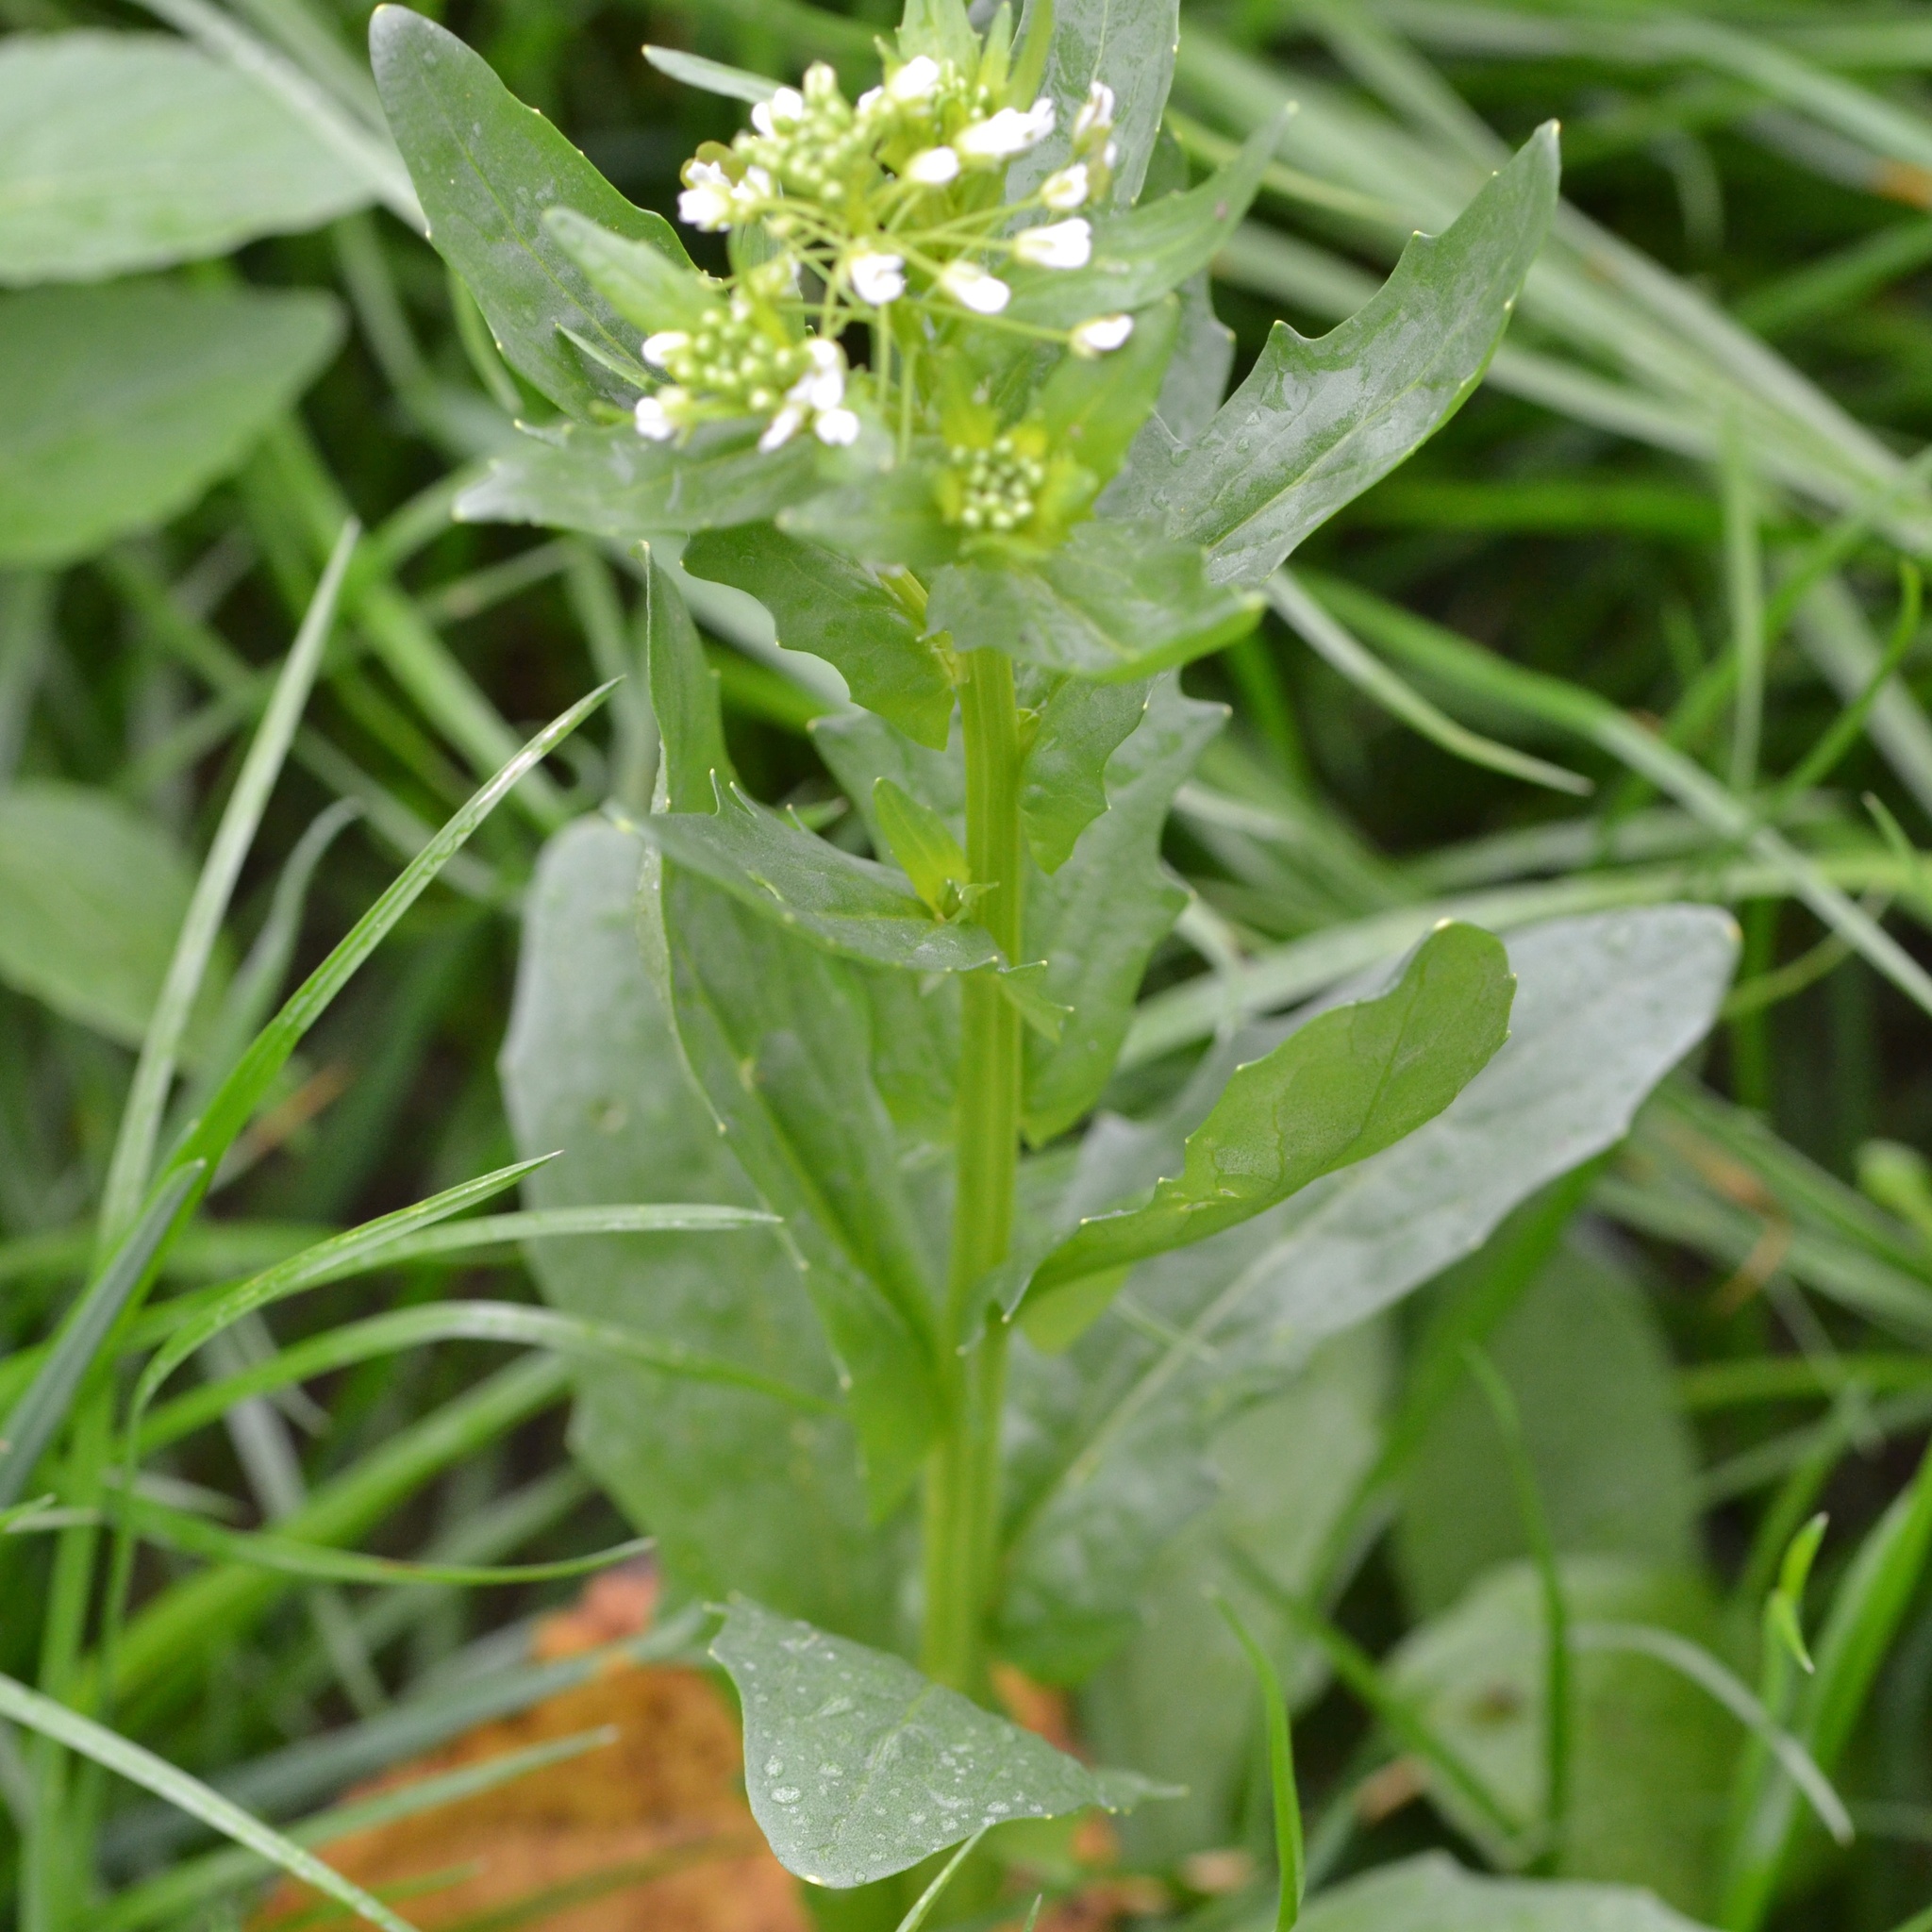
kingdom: Plantae
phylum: Tracheophyta
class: Magnoliopsida
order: Brassicales
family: Brassicaceae
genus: Thlaspi
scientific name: Thlaspi arvense
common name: Field pennycress
